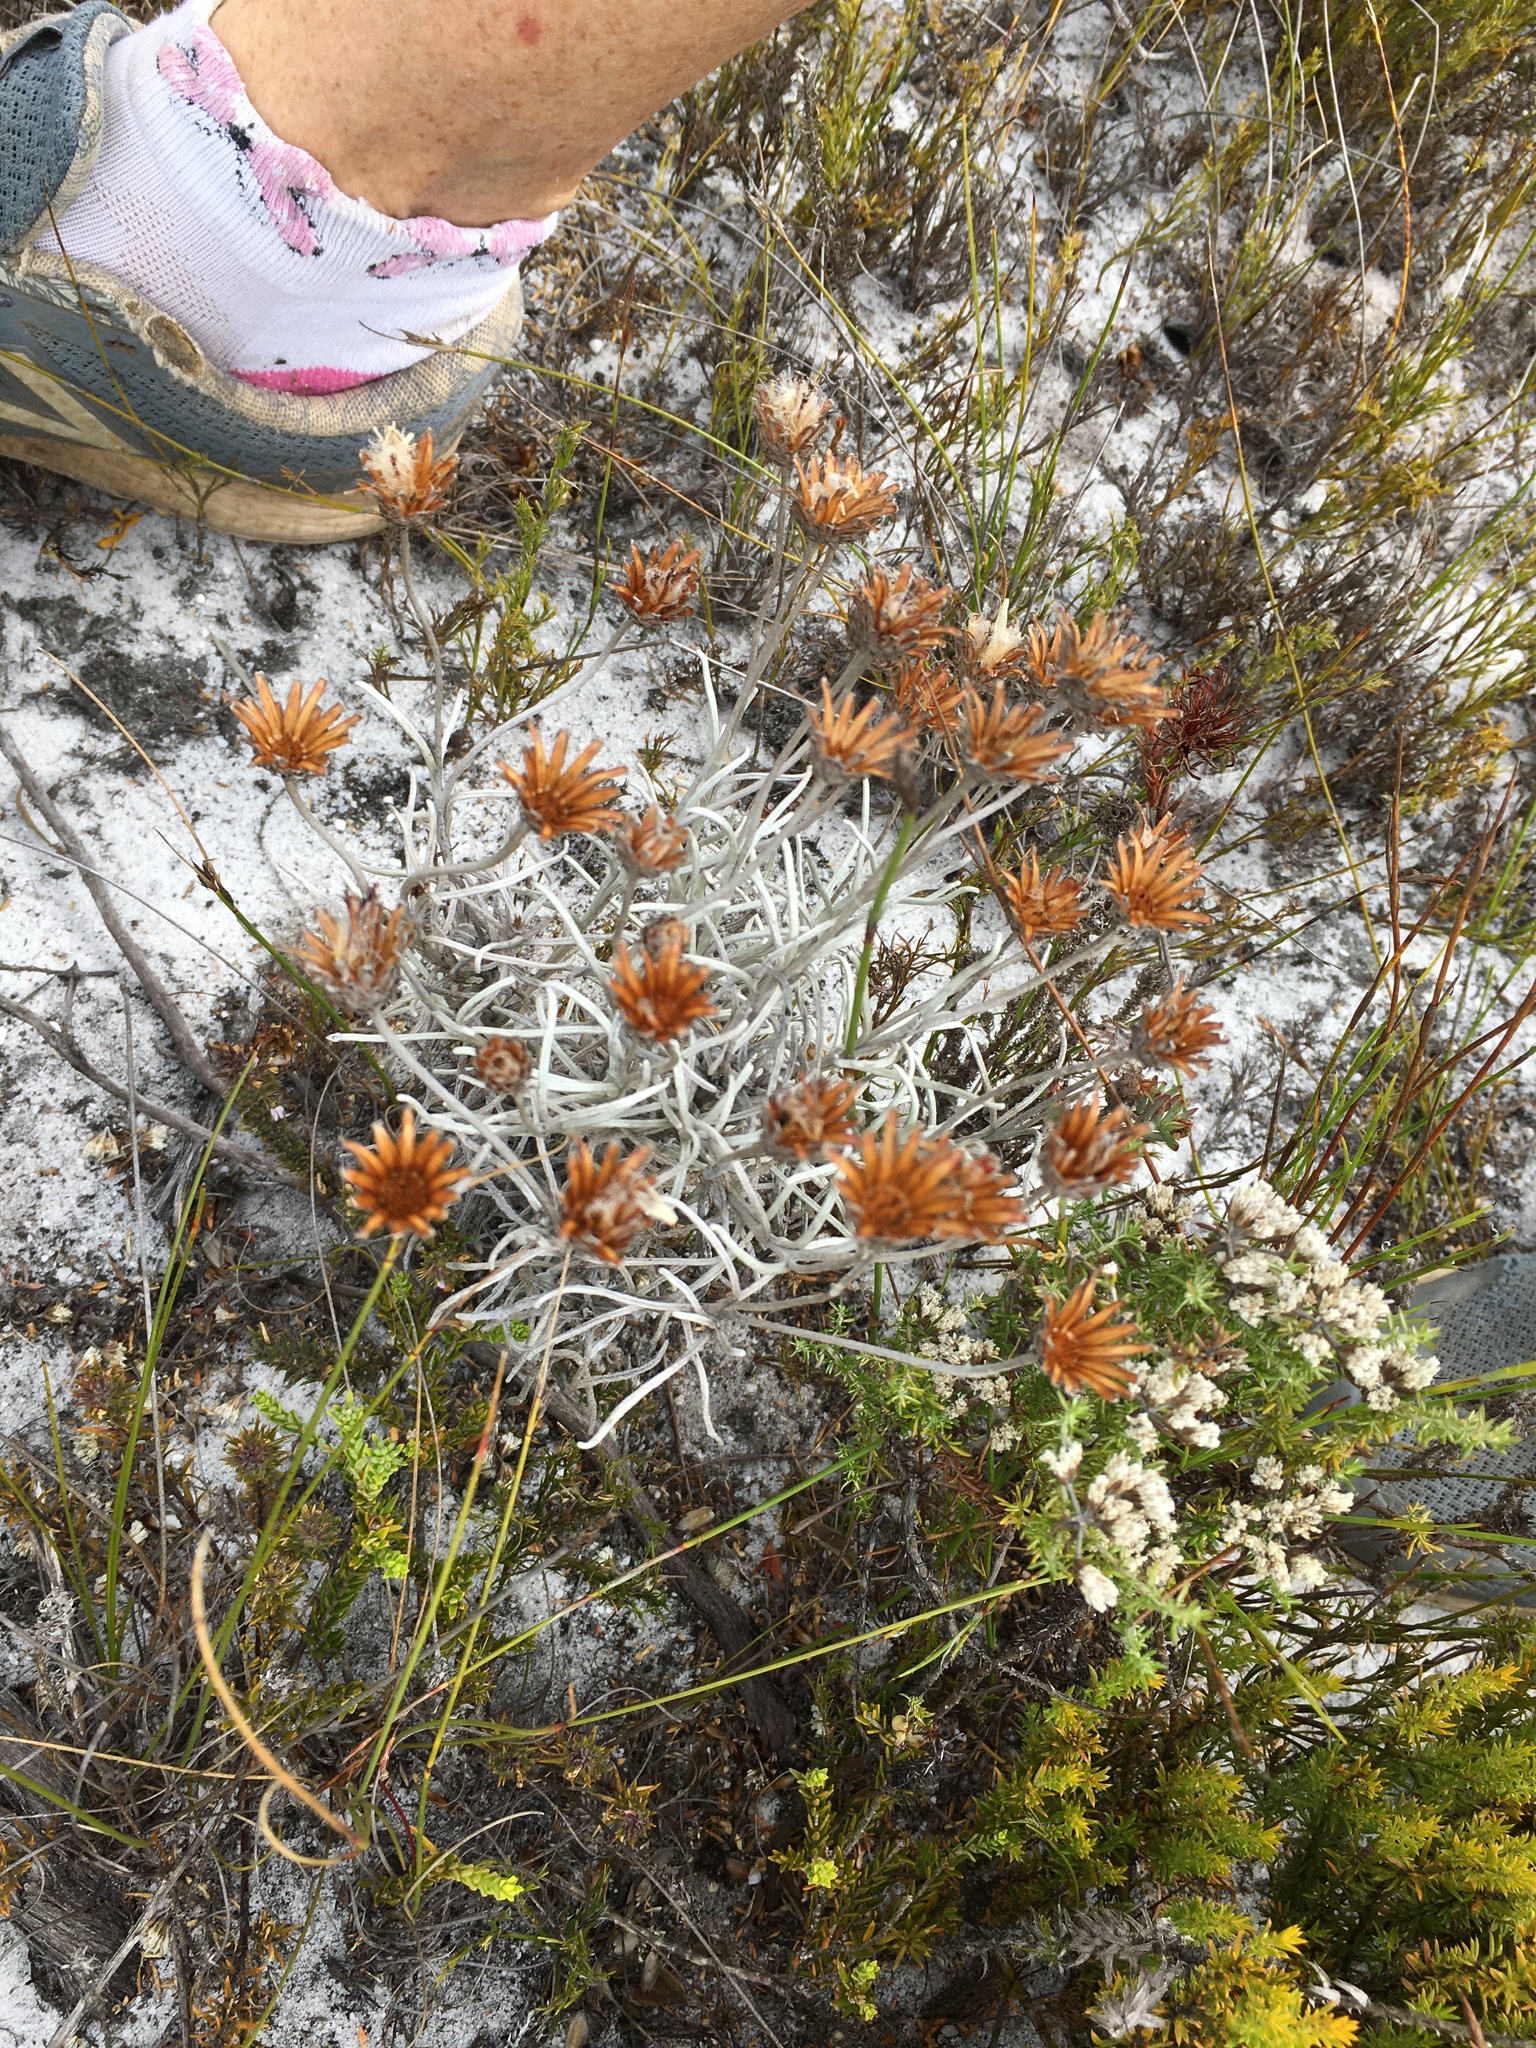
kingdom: Plantae
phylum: Tracheophyta
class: Magnoliopsida
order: Asterales
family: Asteraceae
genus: Syncarpha
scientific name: Syncarpha gnaphaloides
